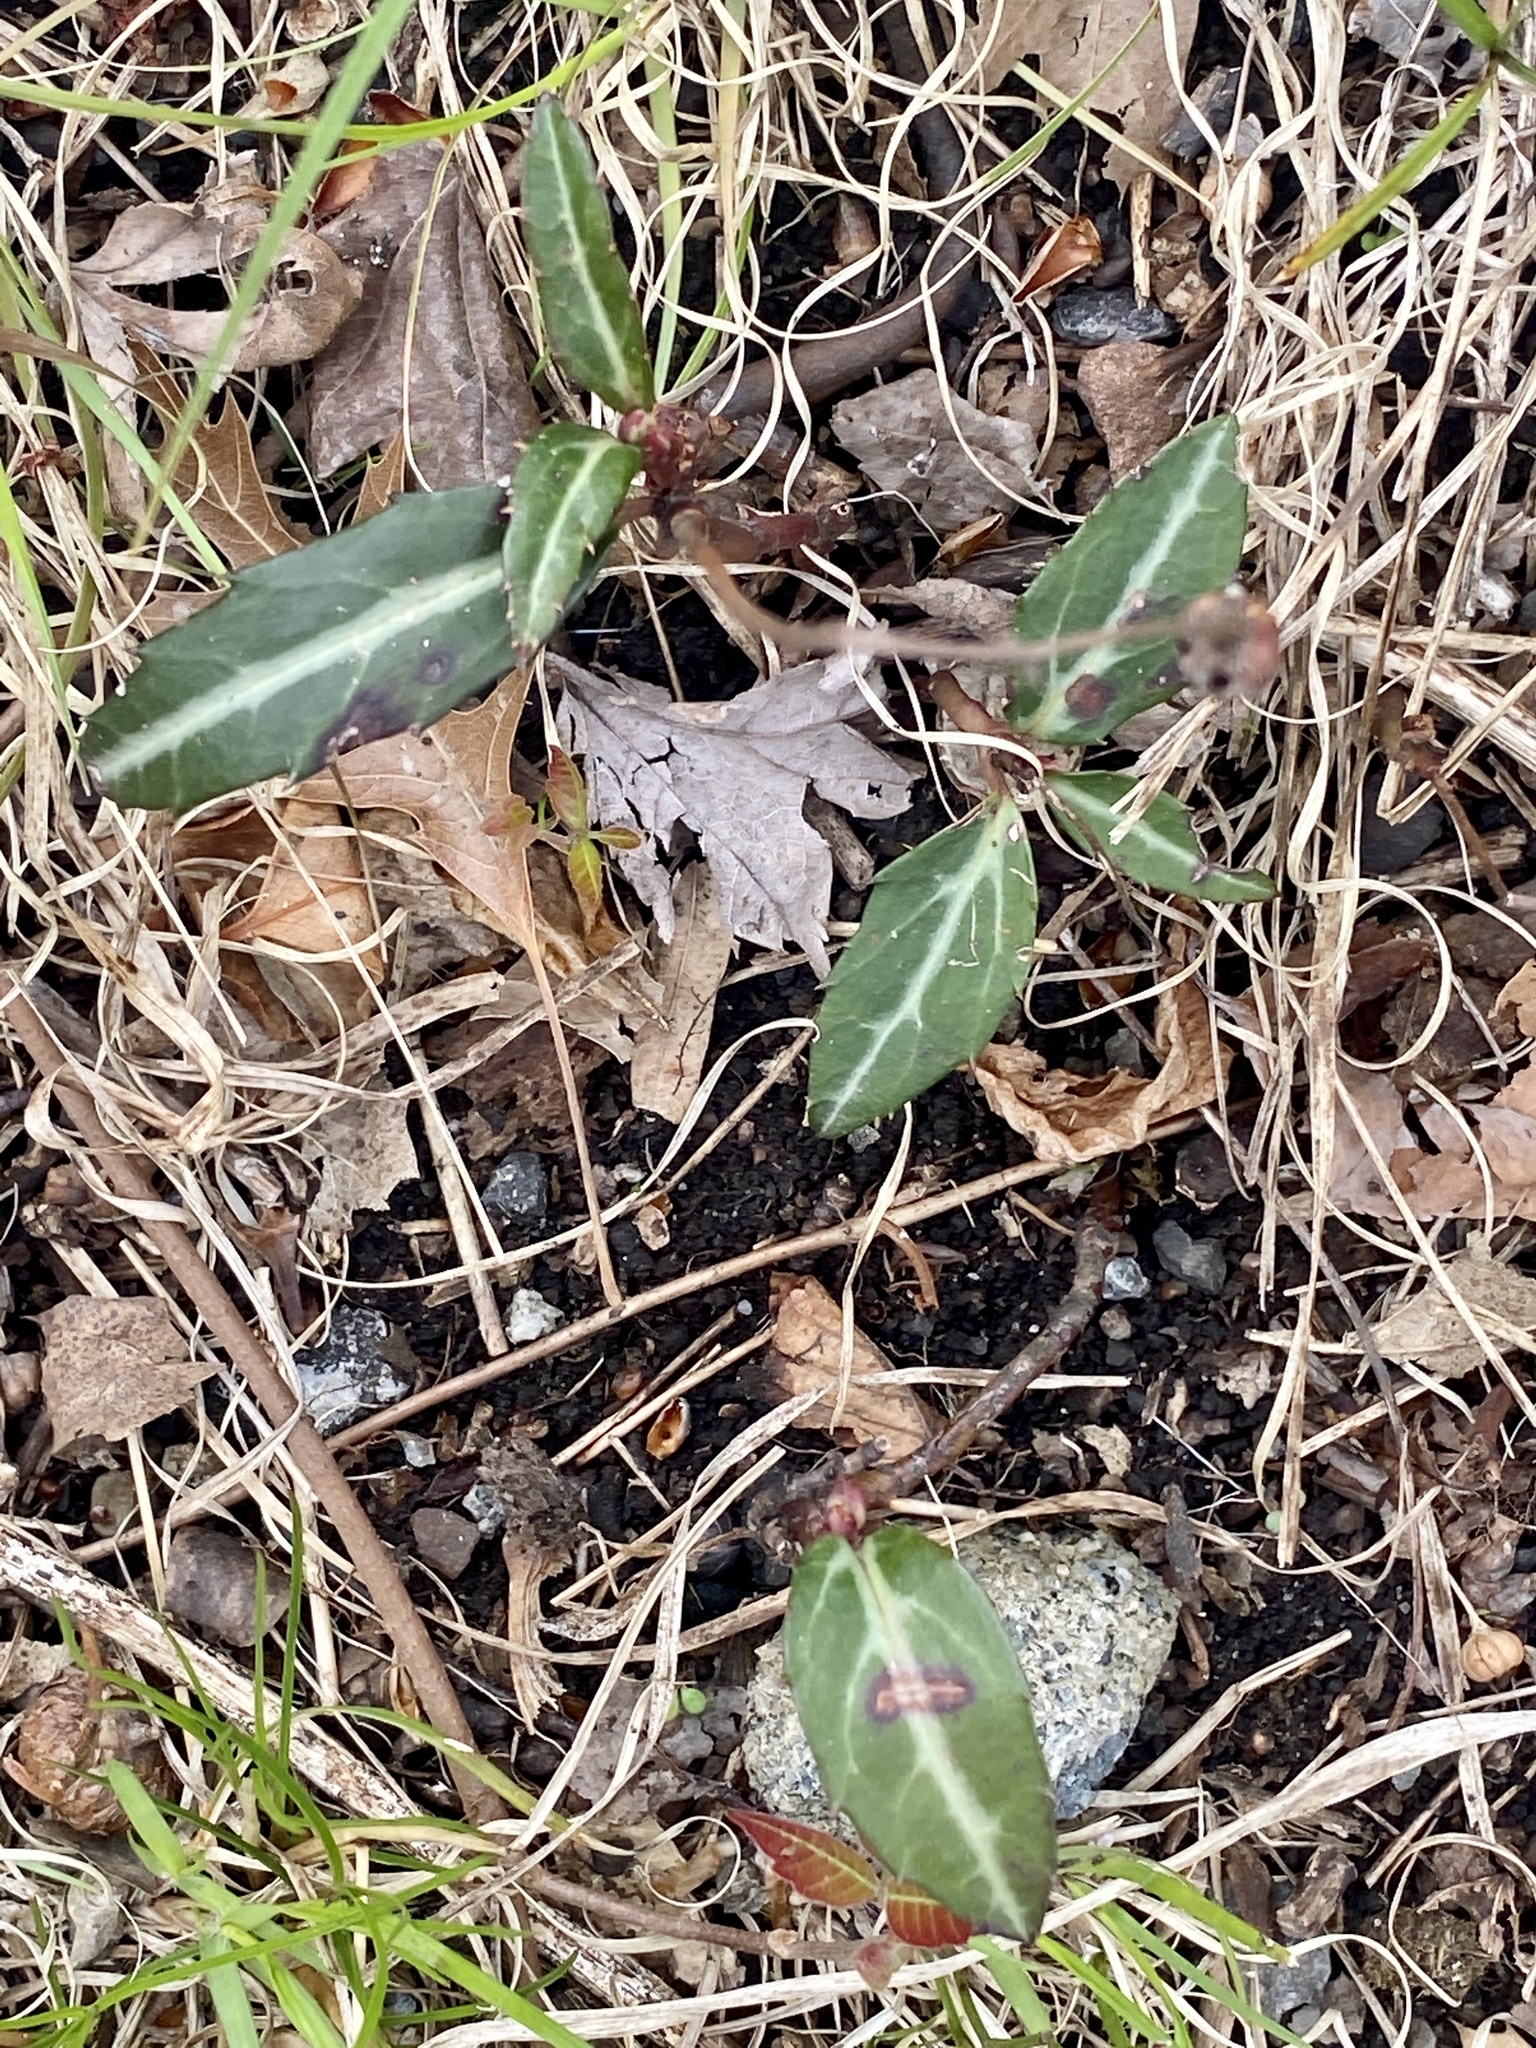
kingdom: Plantae
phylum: Tracheophyta
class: Magnoliopsida
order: Ericales
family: Ericaceae
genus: Chimaphila
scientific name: Chimaphila maculata
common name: Spotted pipsissewa
